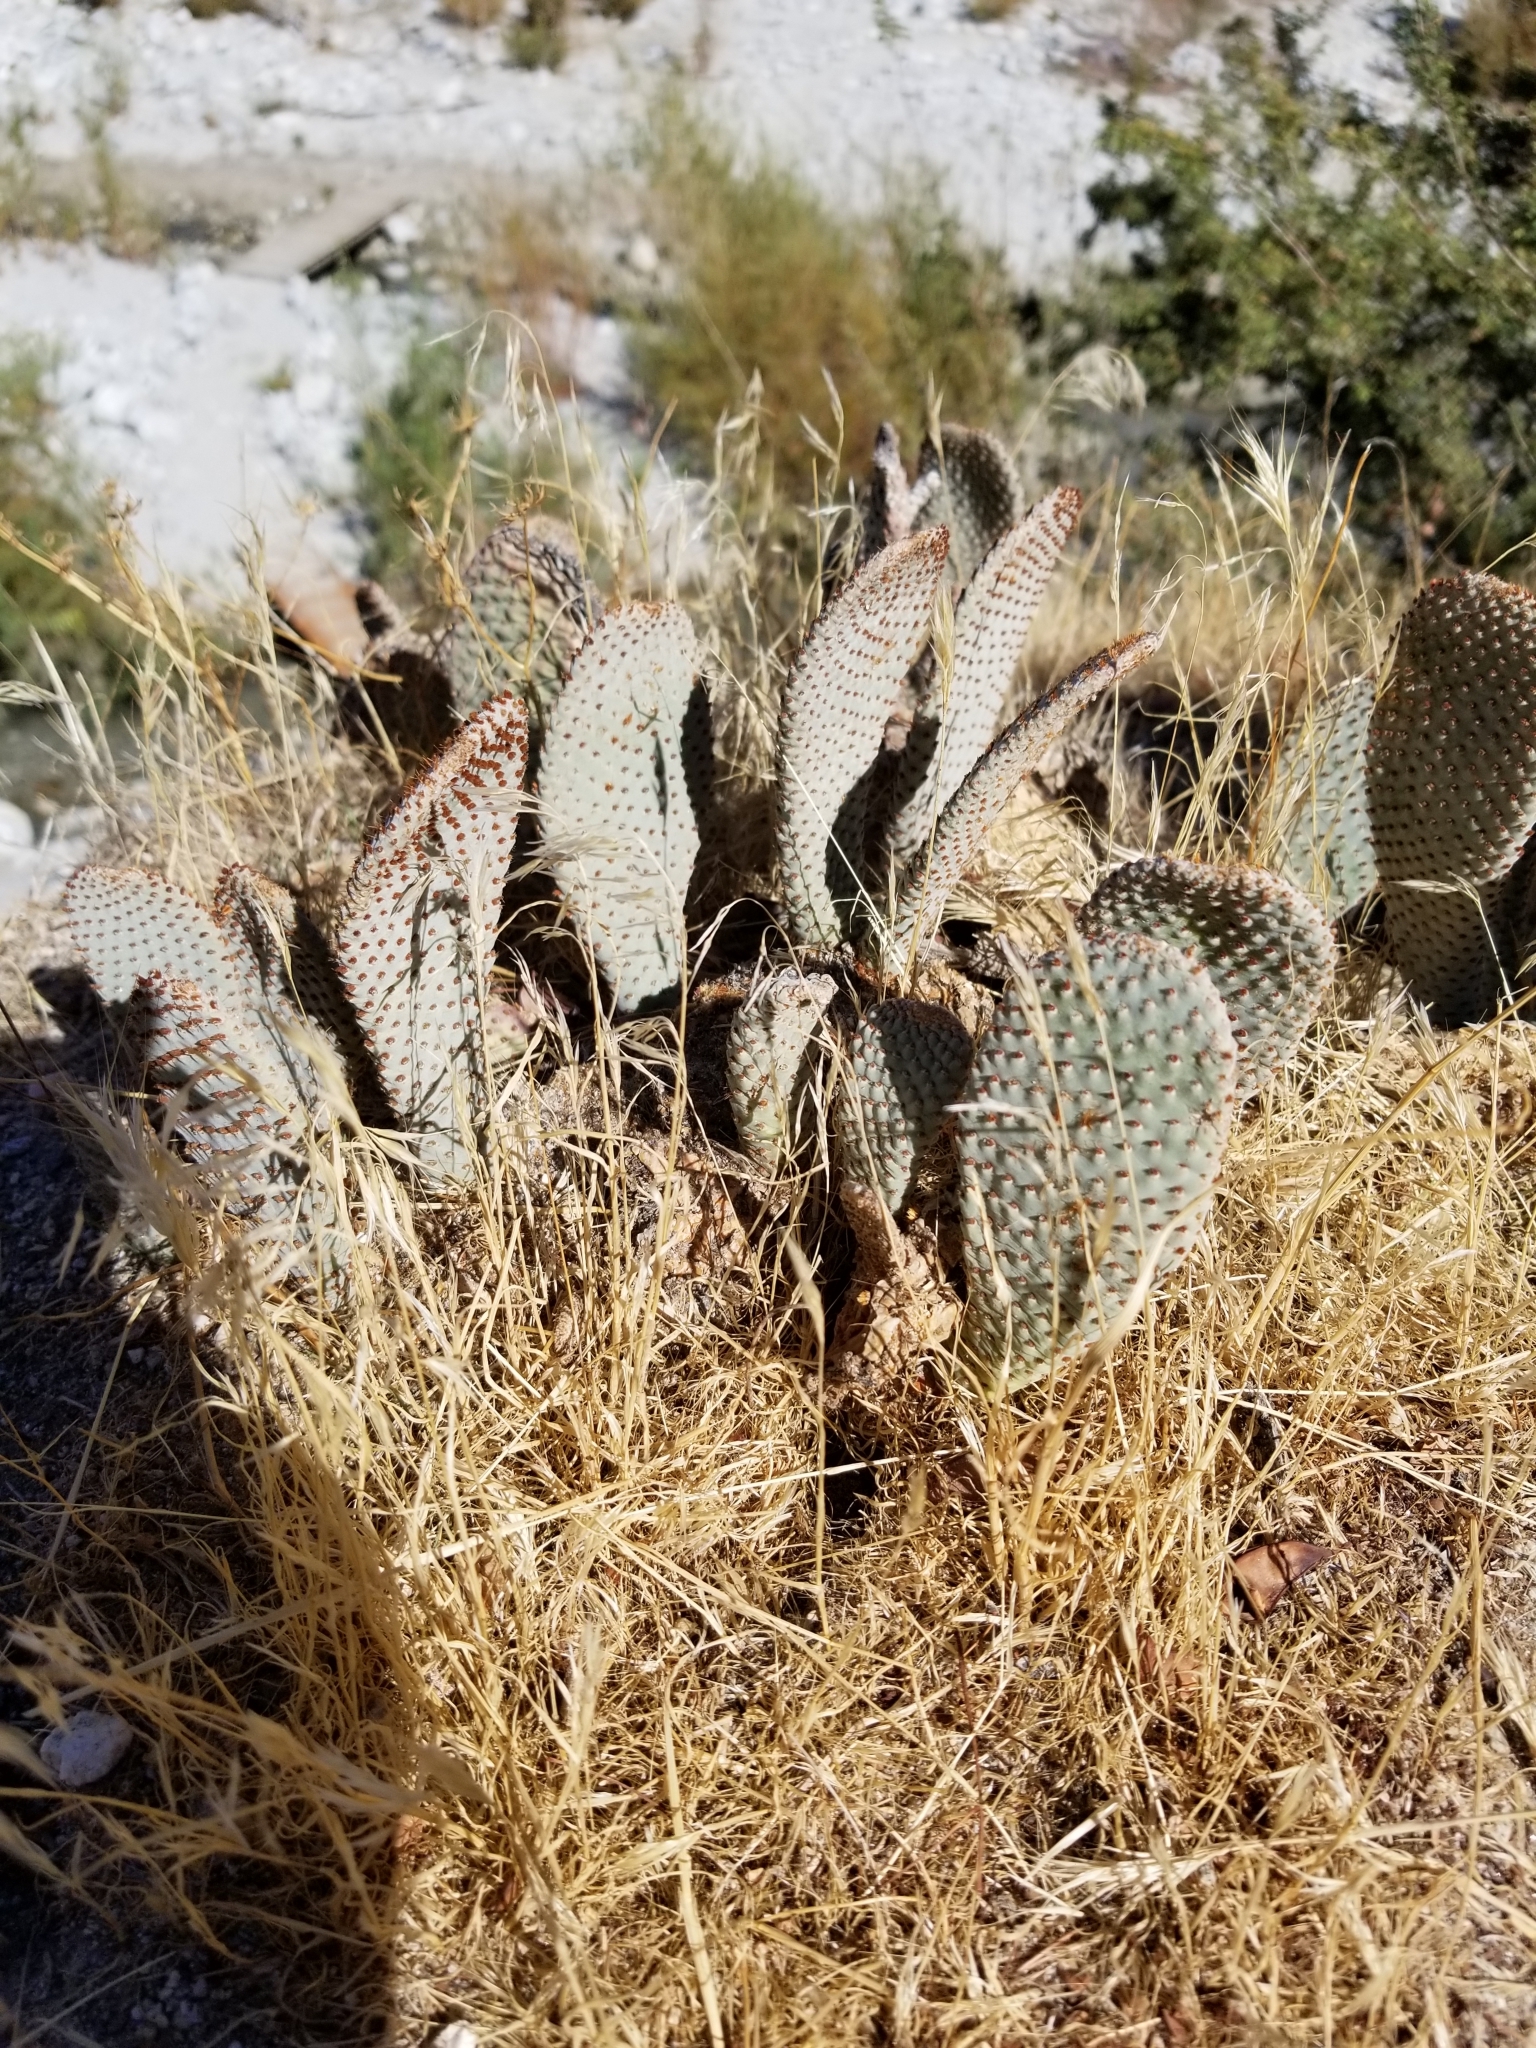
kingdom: Plantae
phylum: Tracheophyta
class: Magnoliopsida
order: Caryophyllales
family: Cactaceae
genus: Opuntia
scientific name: Opuntia basilaris
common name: Beavertail prickly-pear
